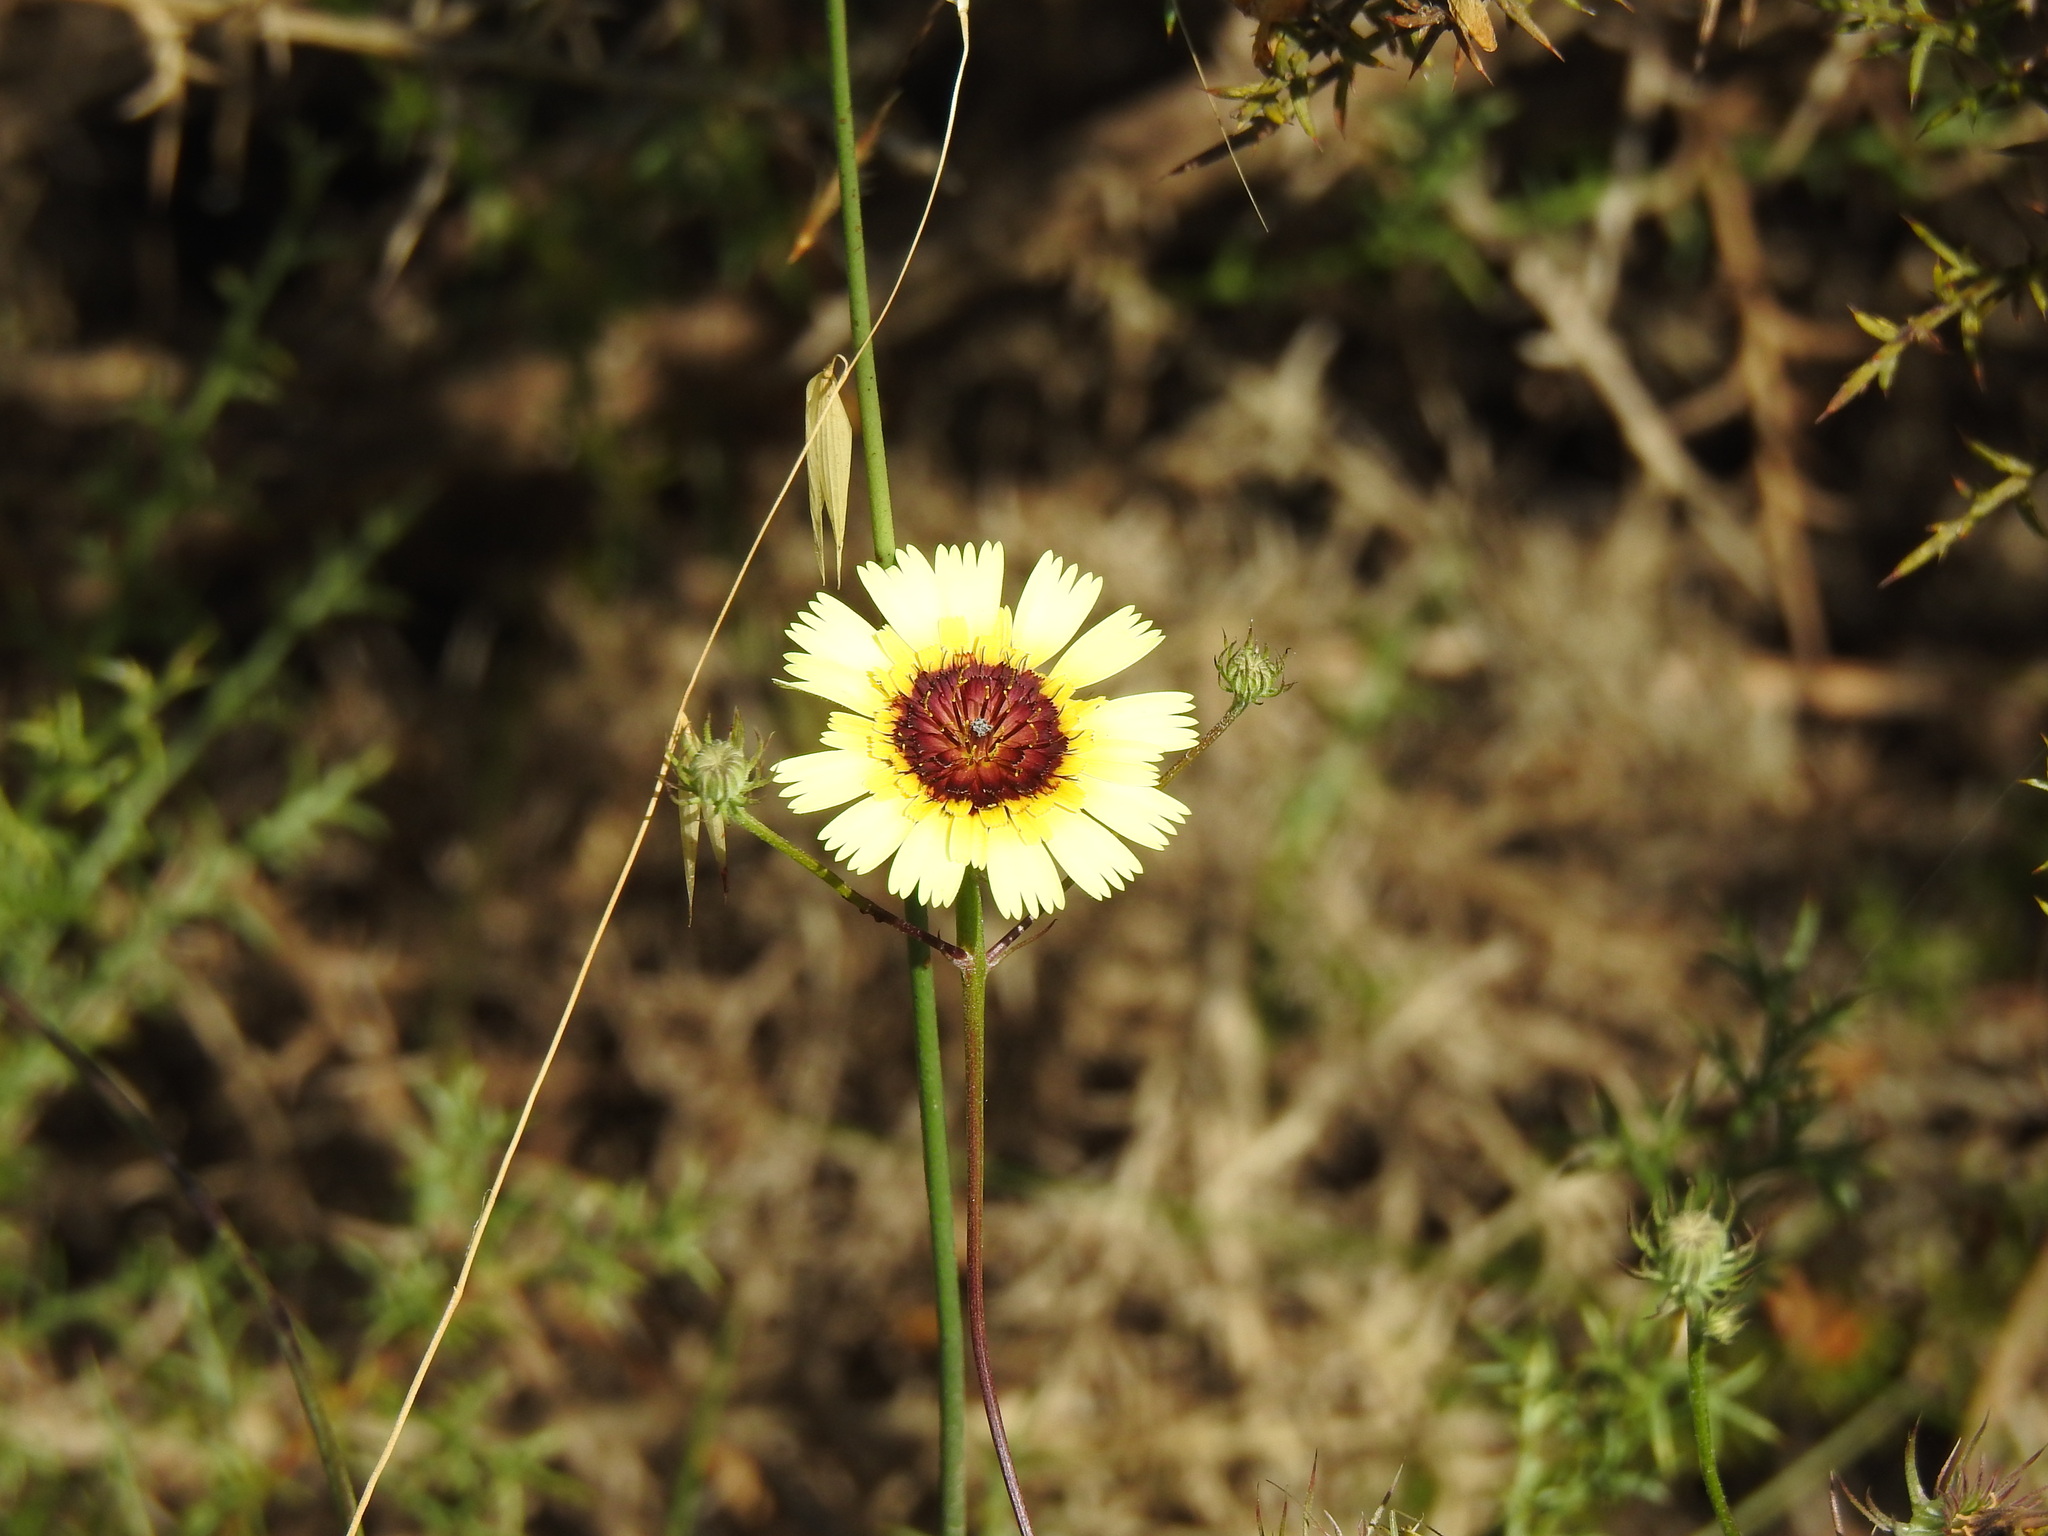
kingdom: Plantae
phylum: Tracheophyta
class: Magnoliopsida
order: Asterales
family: Asteraceae
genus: Tolpis
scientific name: Tolpis barbata
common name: Yellow hawkweed
